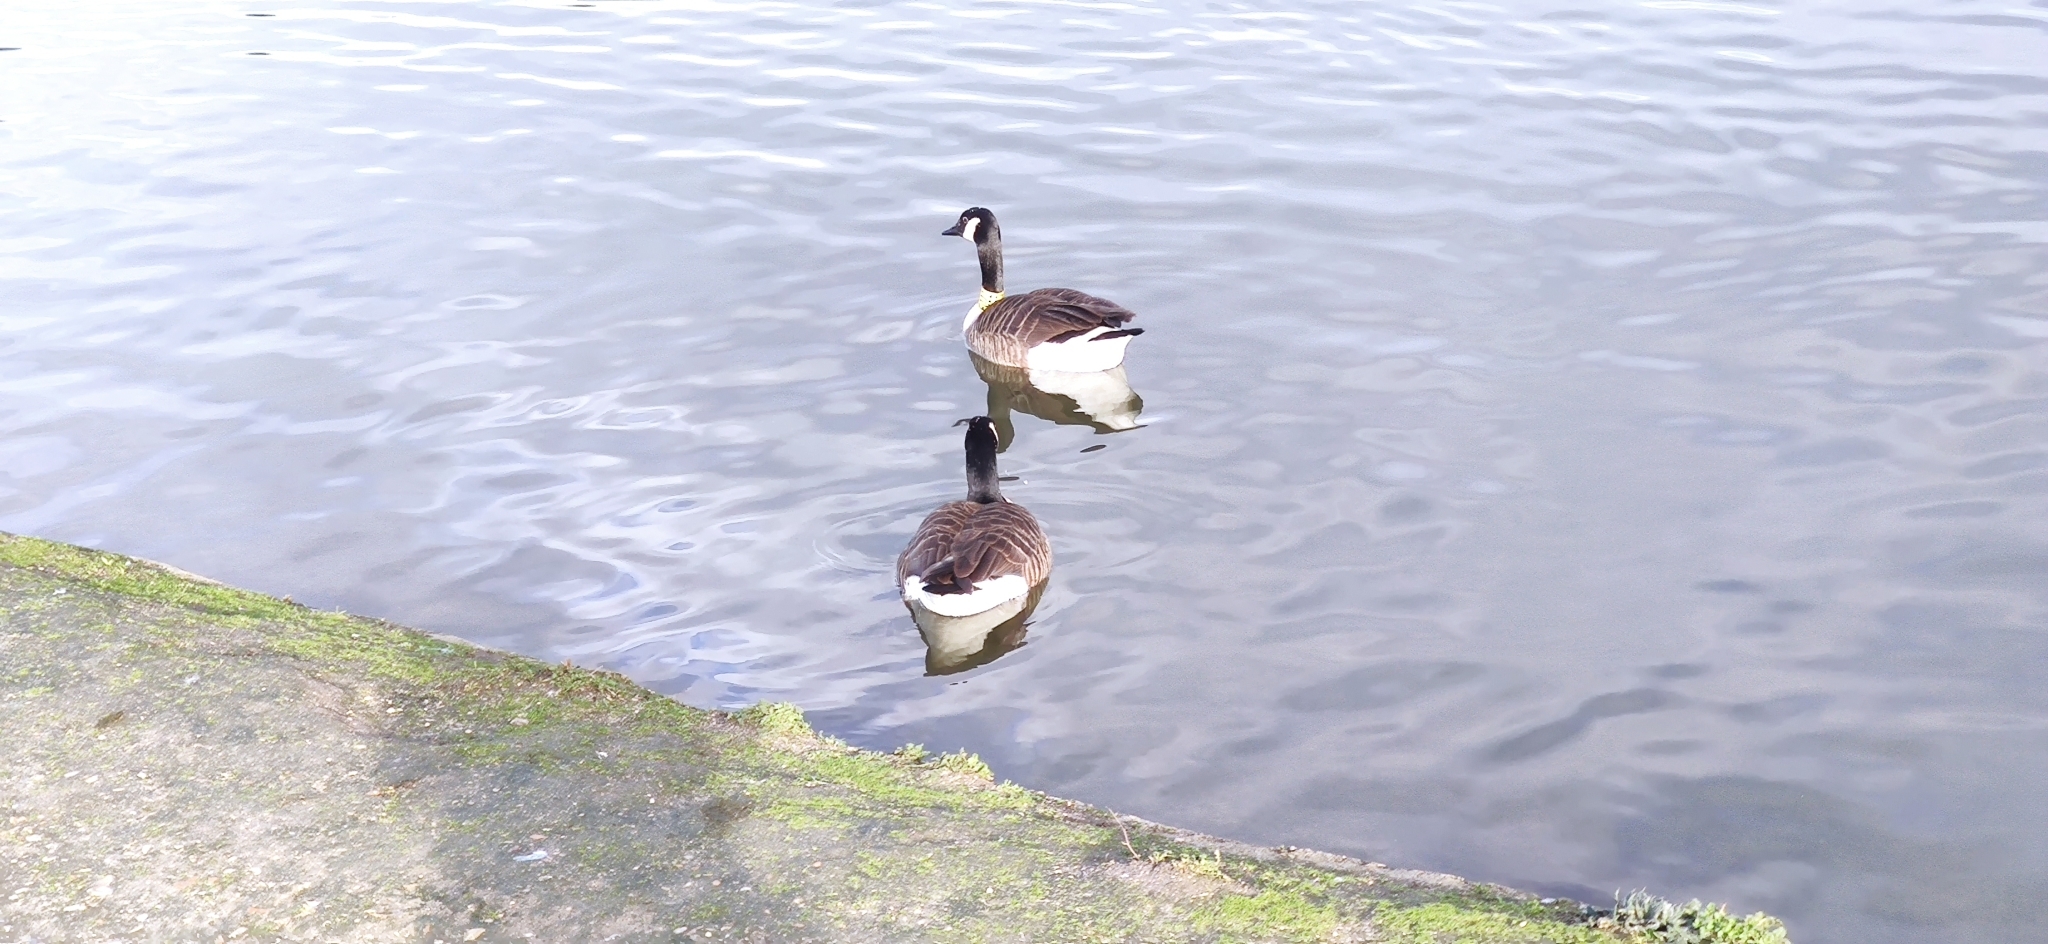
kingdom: Animalia
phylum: Chordata
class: Aves
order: Anseriformes
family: Anatidae
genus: Branta
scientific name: Branta canadensis
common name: Canada goose
